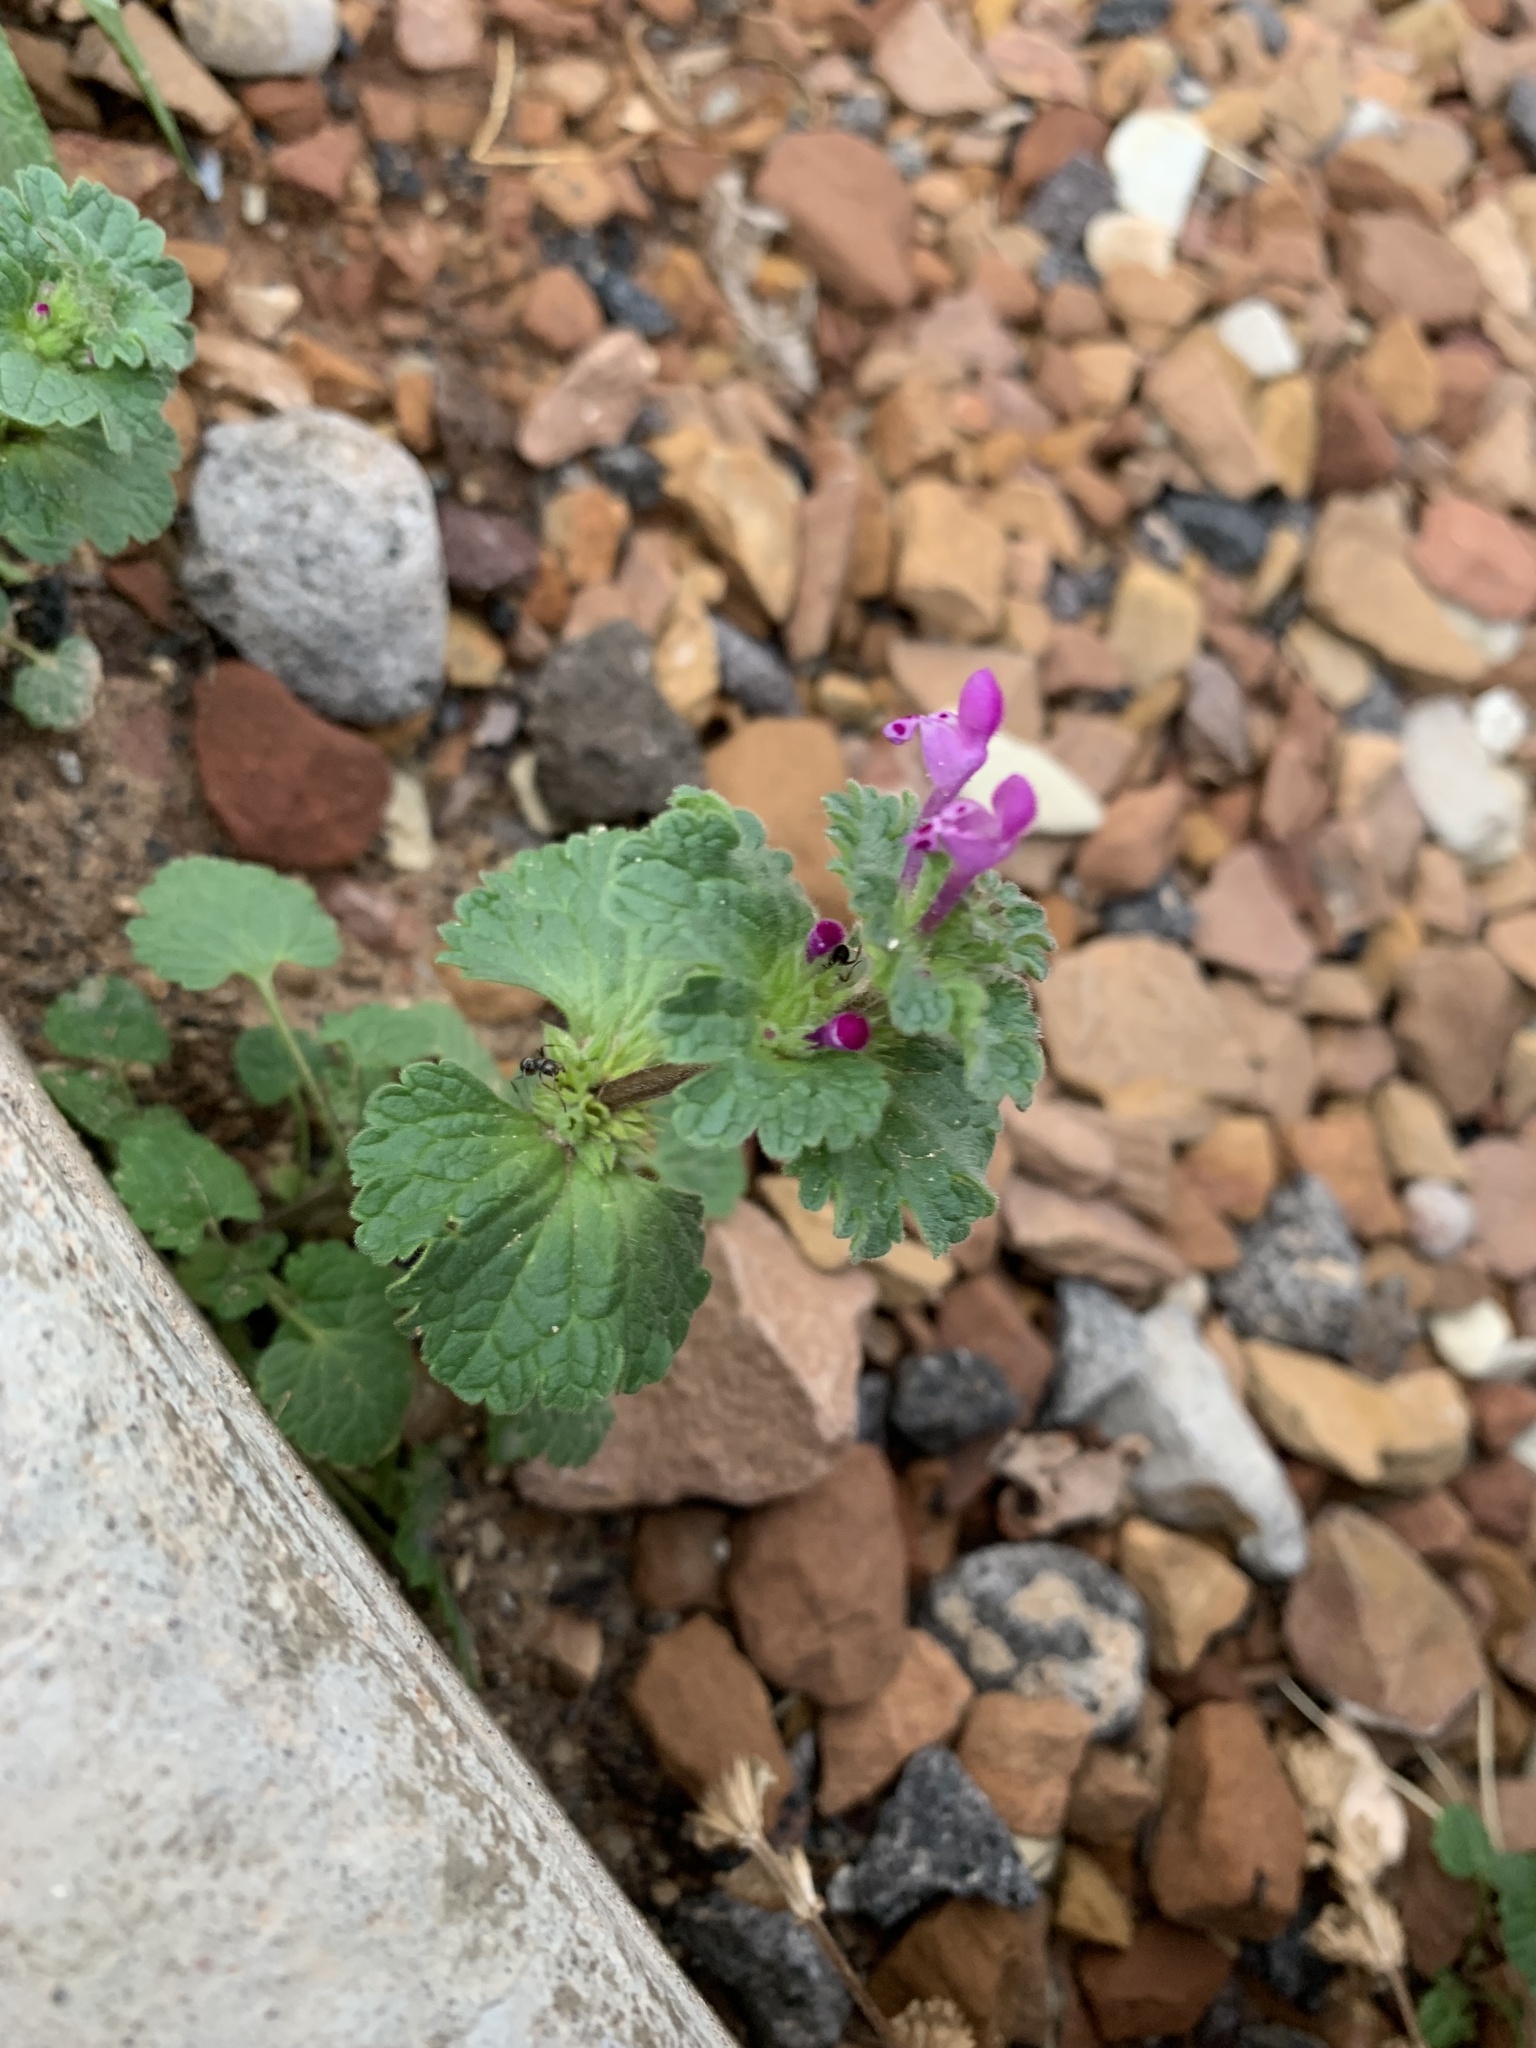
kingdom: Plantae
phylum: Tracheophyta
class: Magnoliopsida
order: Lamiales
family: Lamiaceae
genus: Lamium
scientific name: Lamium amplexicaule
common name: Henbit dead-nettle
